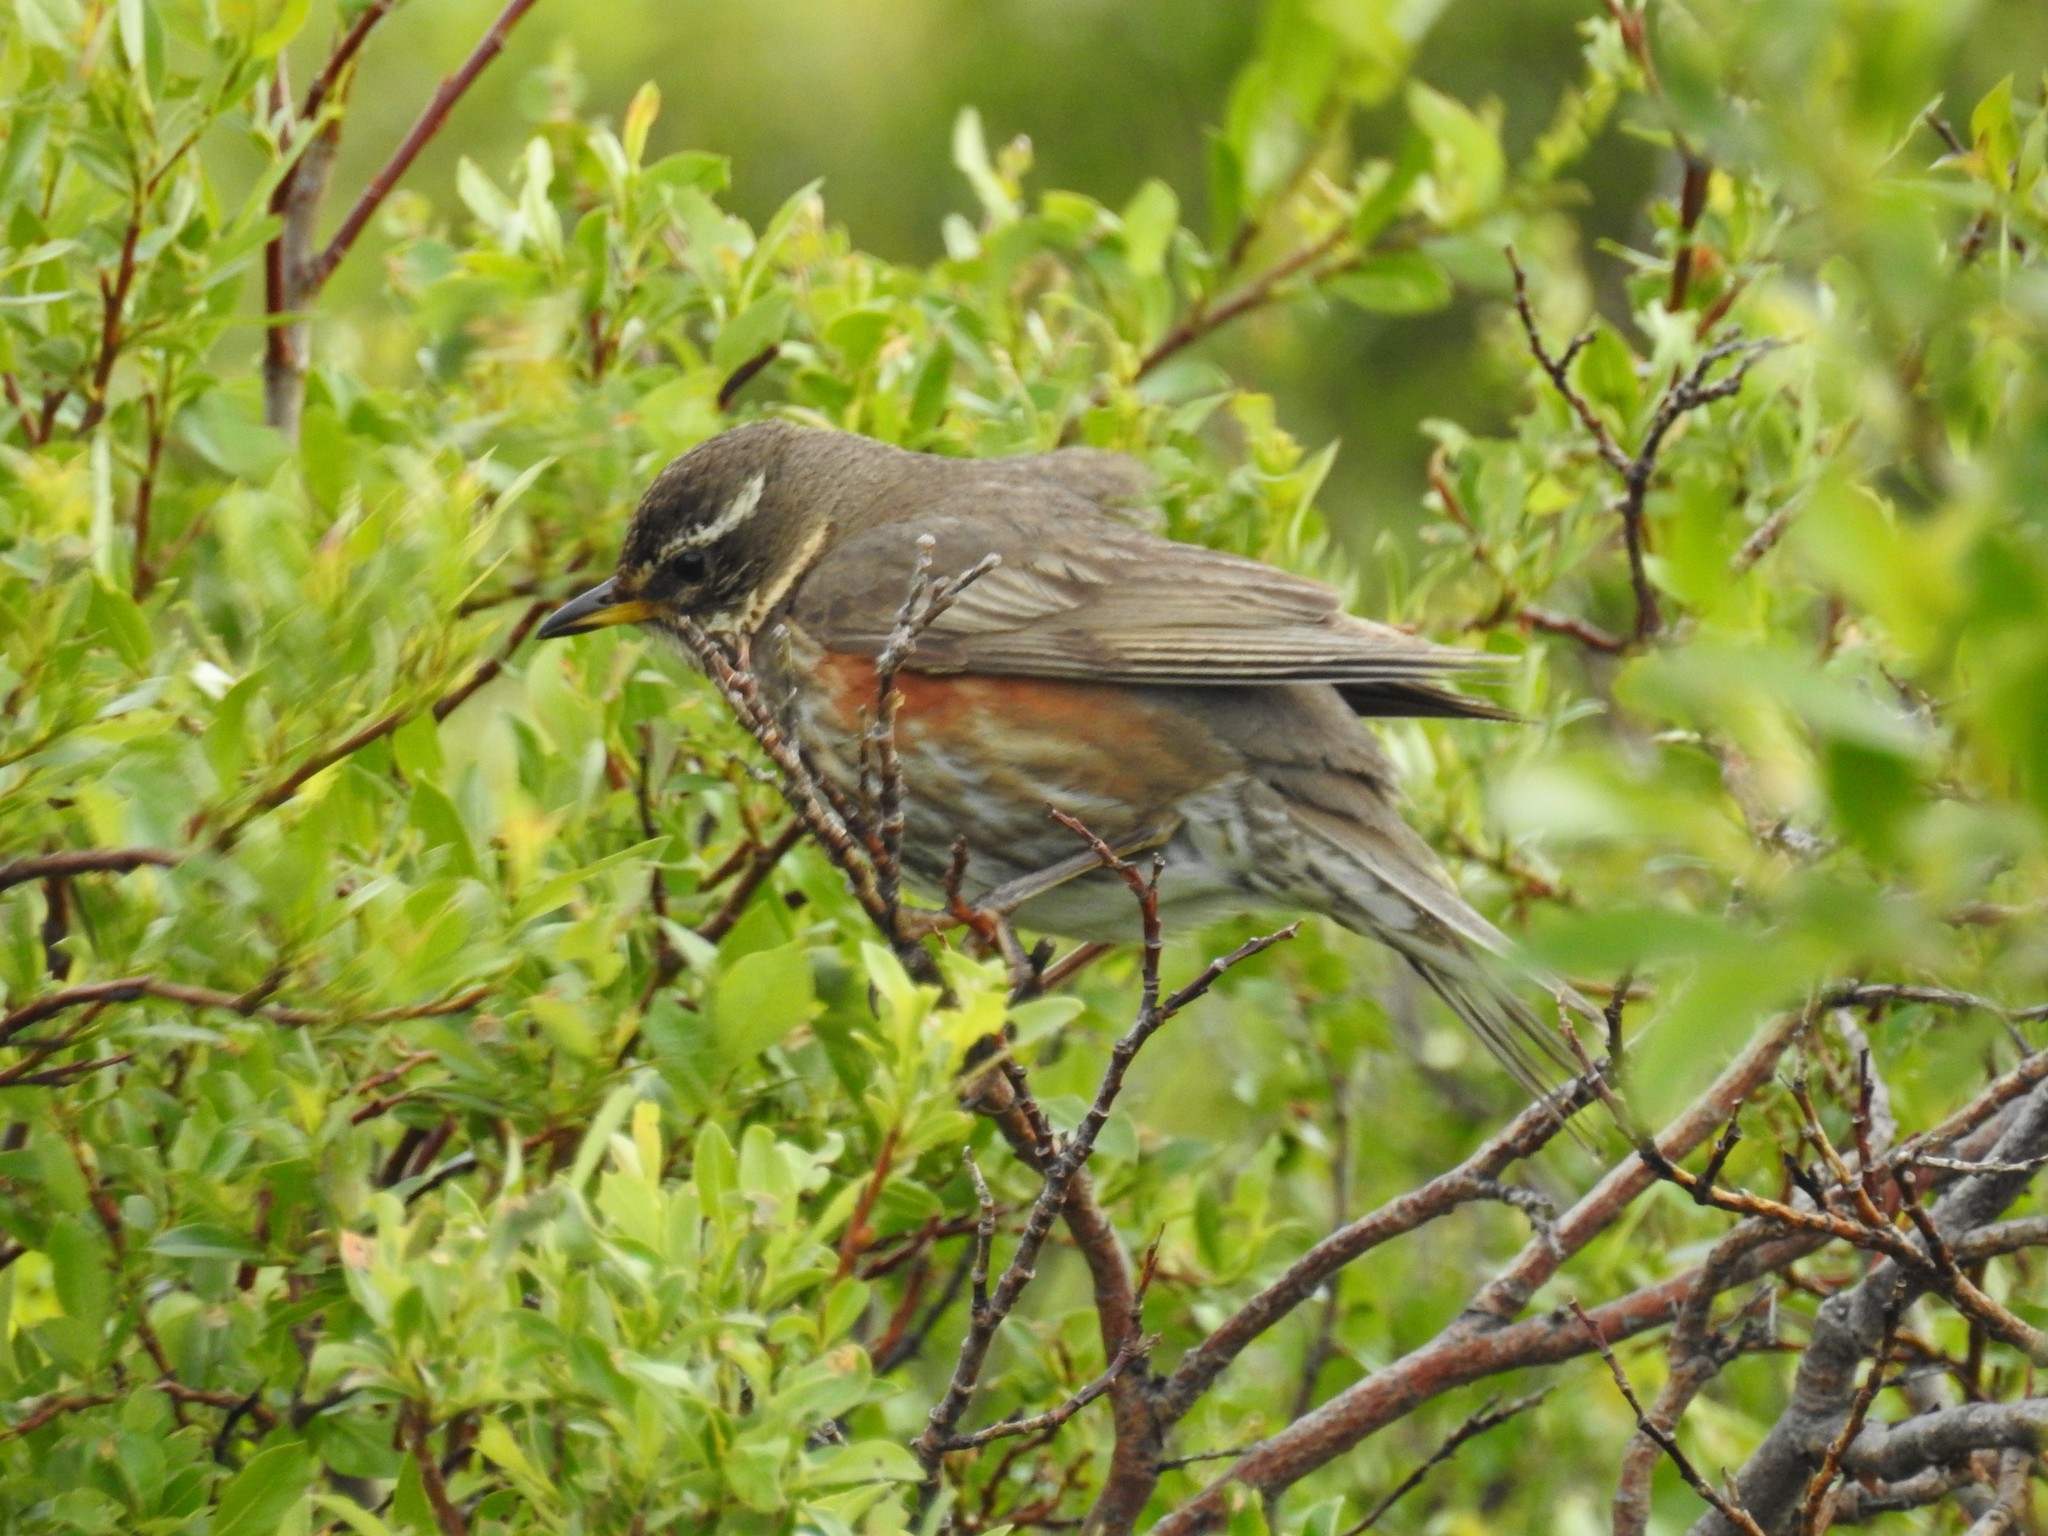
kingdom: Animalia
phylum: Chordata
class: Aves
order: Passeriformes
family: Turdidae
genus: Turdus
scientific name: Turdus iliacus
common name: Redwing
